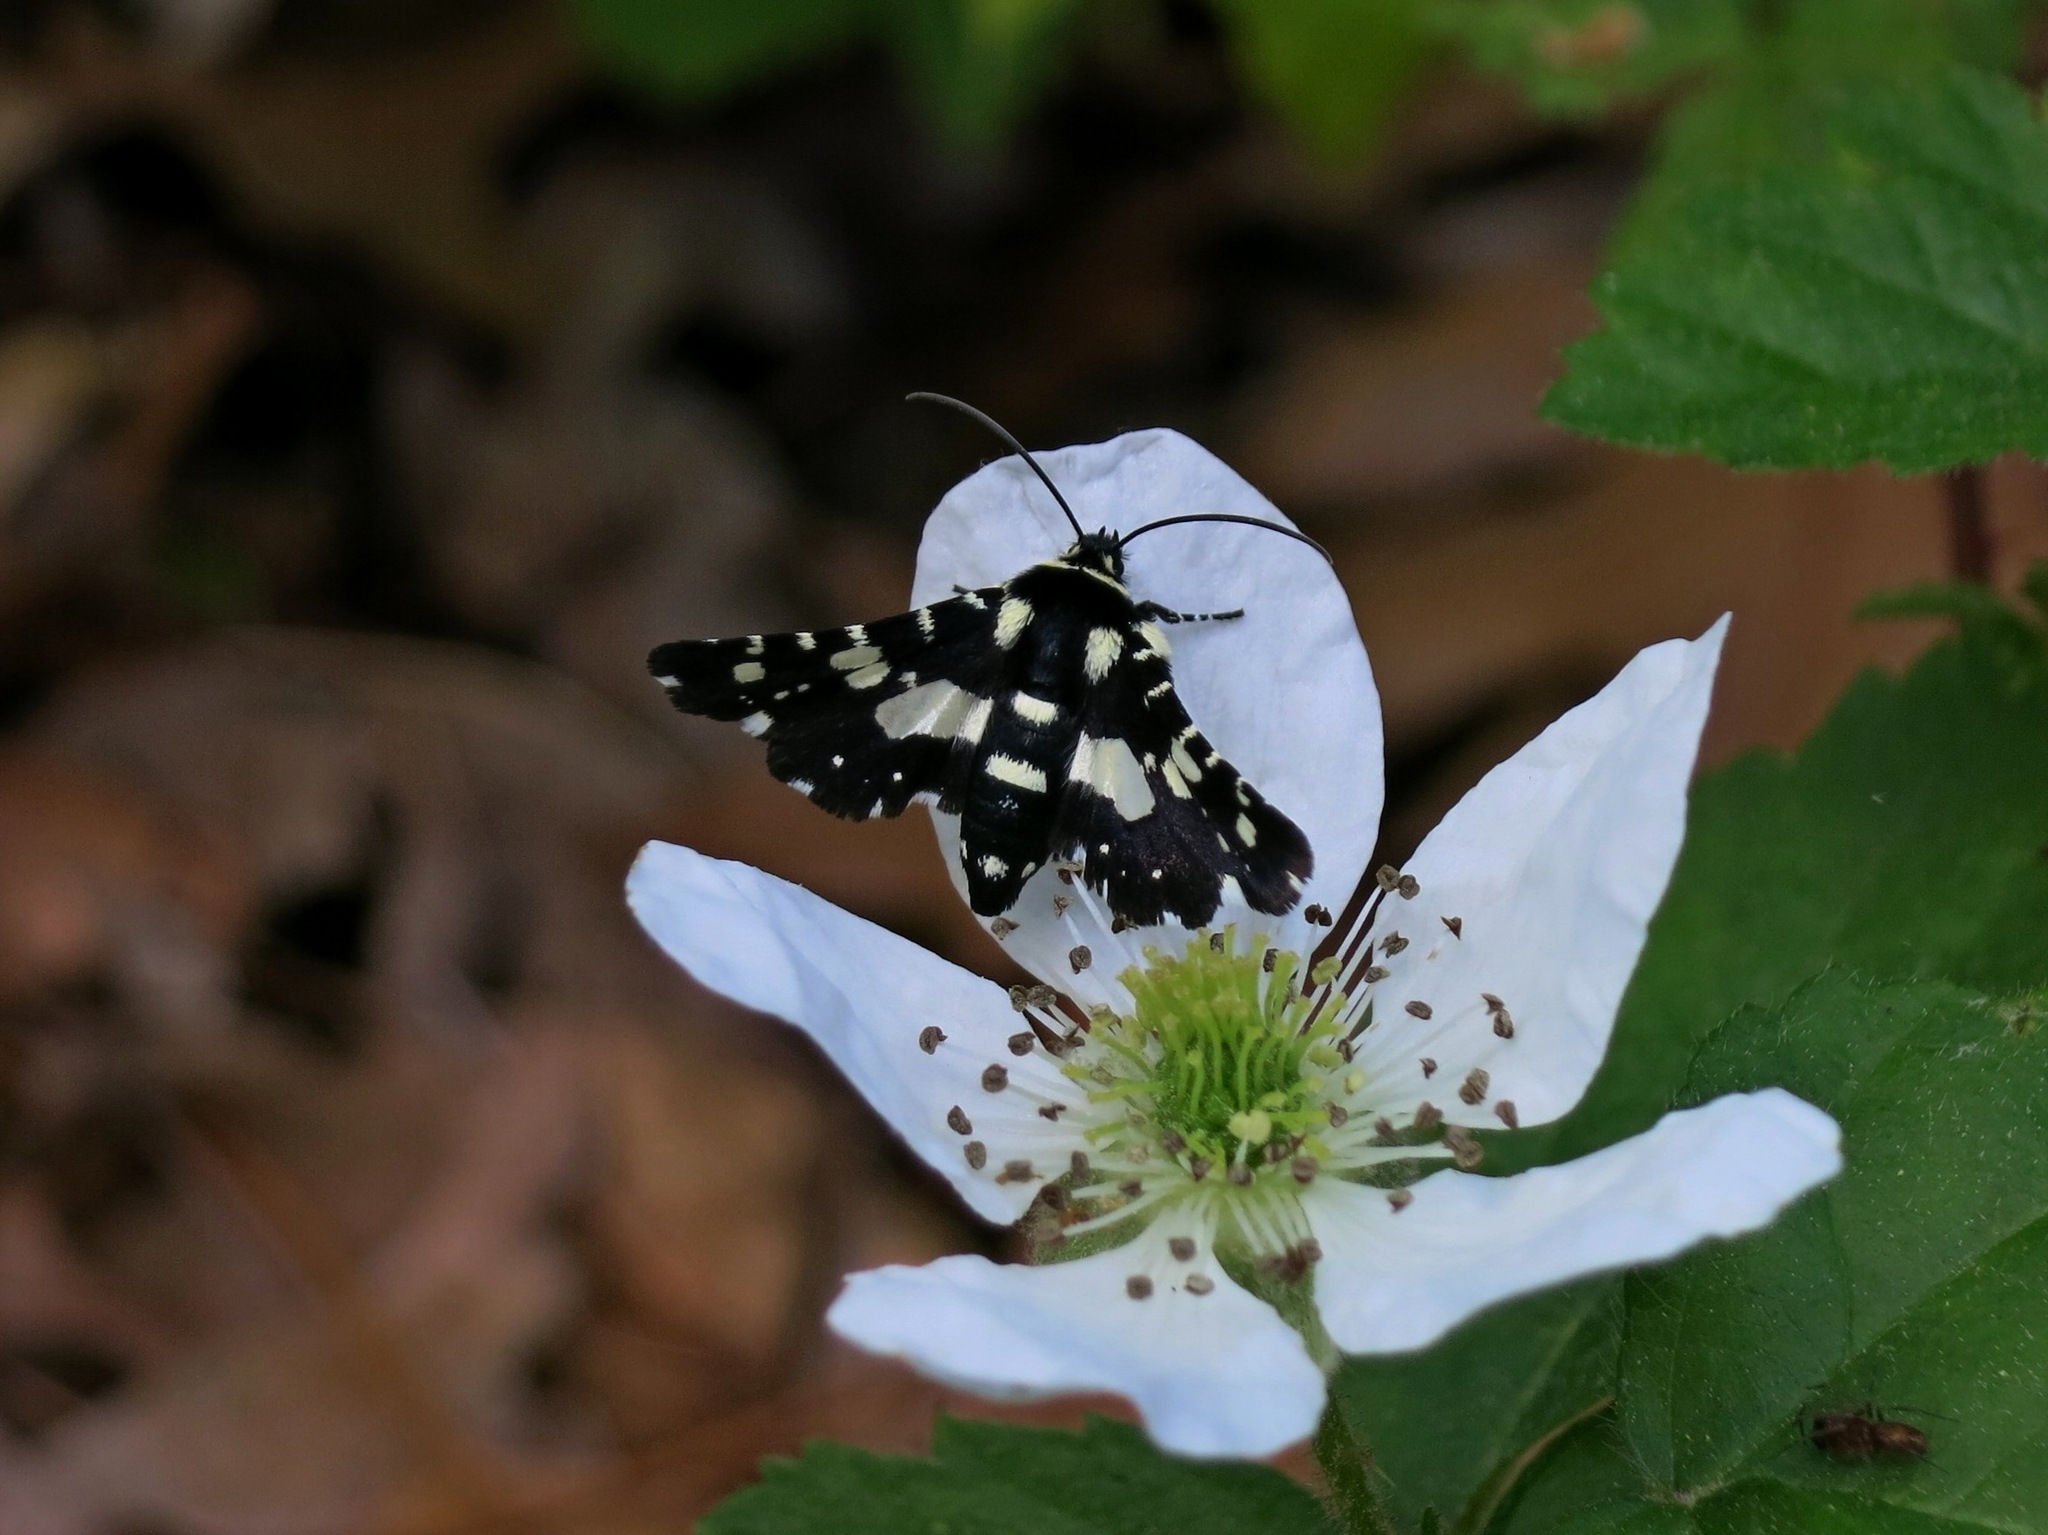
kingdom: Animalia
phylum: Arthropoda
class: Insecta
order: Lepidoptera
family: Thyrididae
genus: Pseudothyris
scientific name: Pseudothyris sepulchralis
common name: Mournful thyris moth
